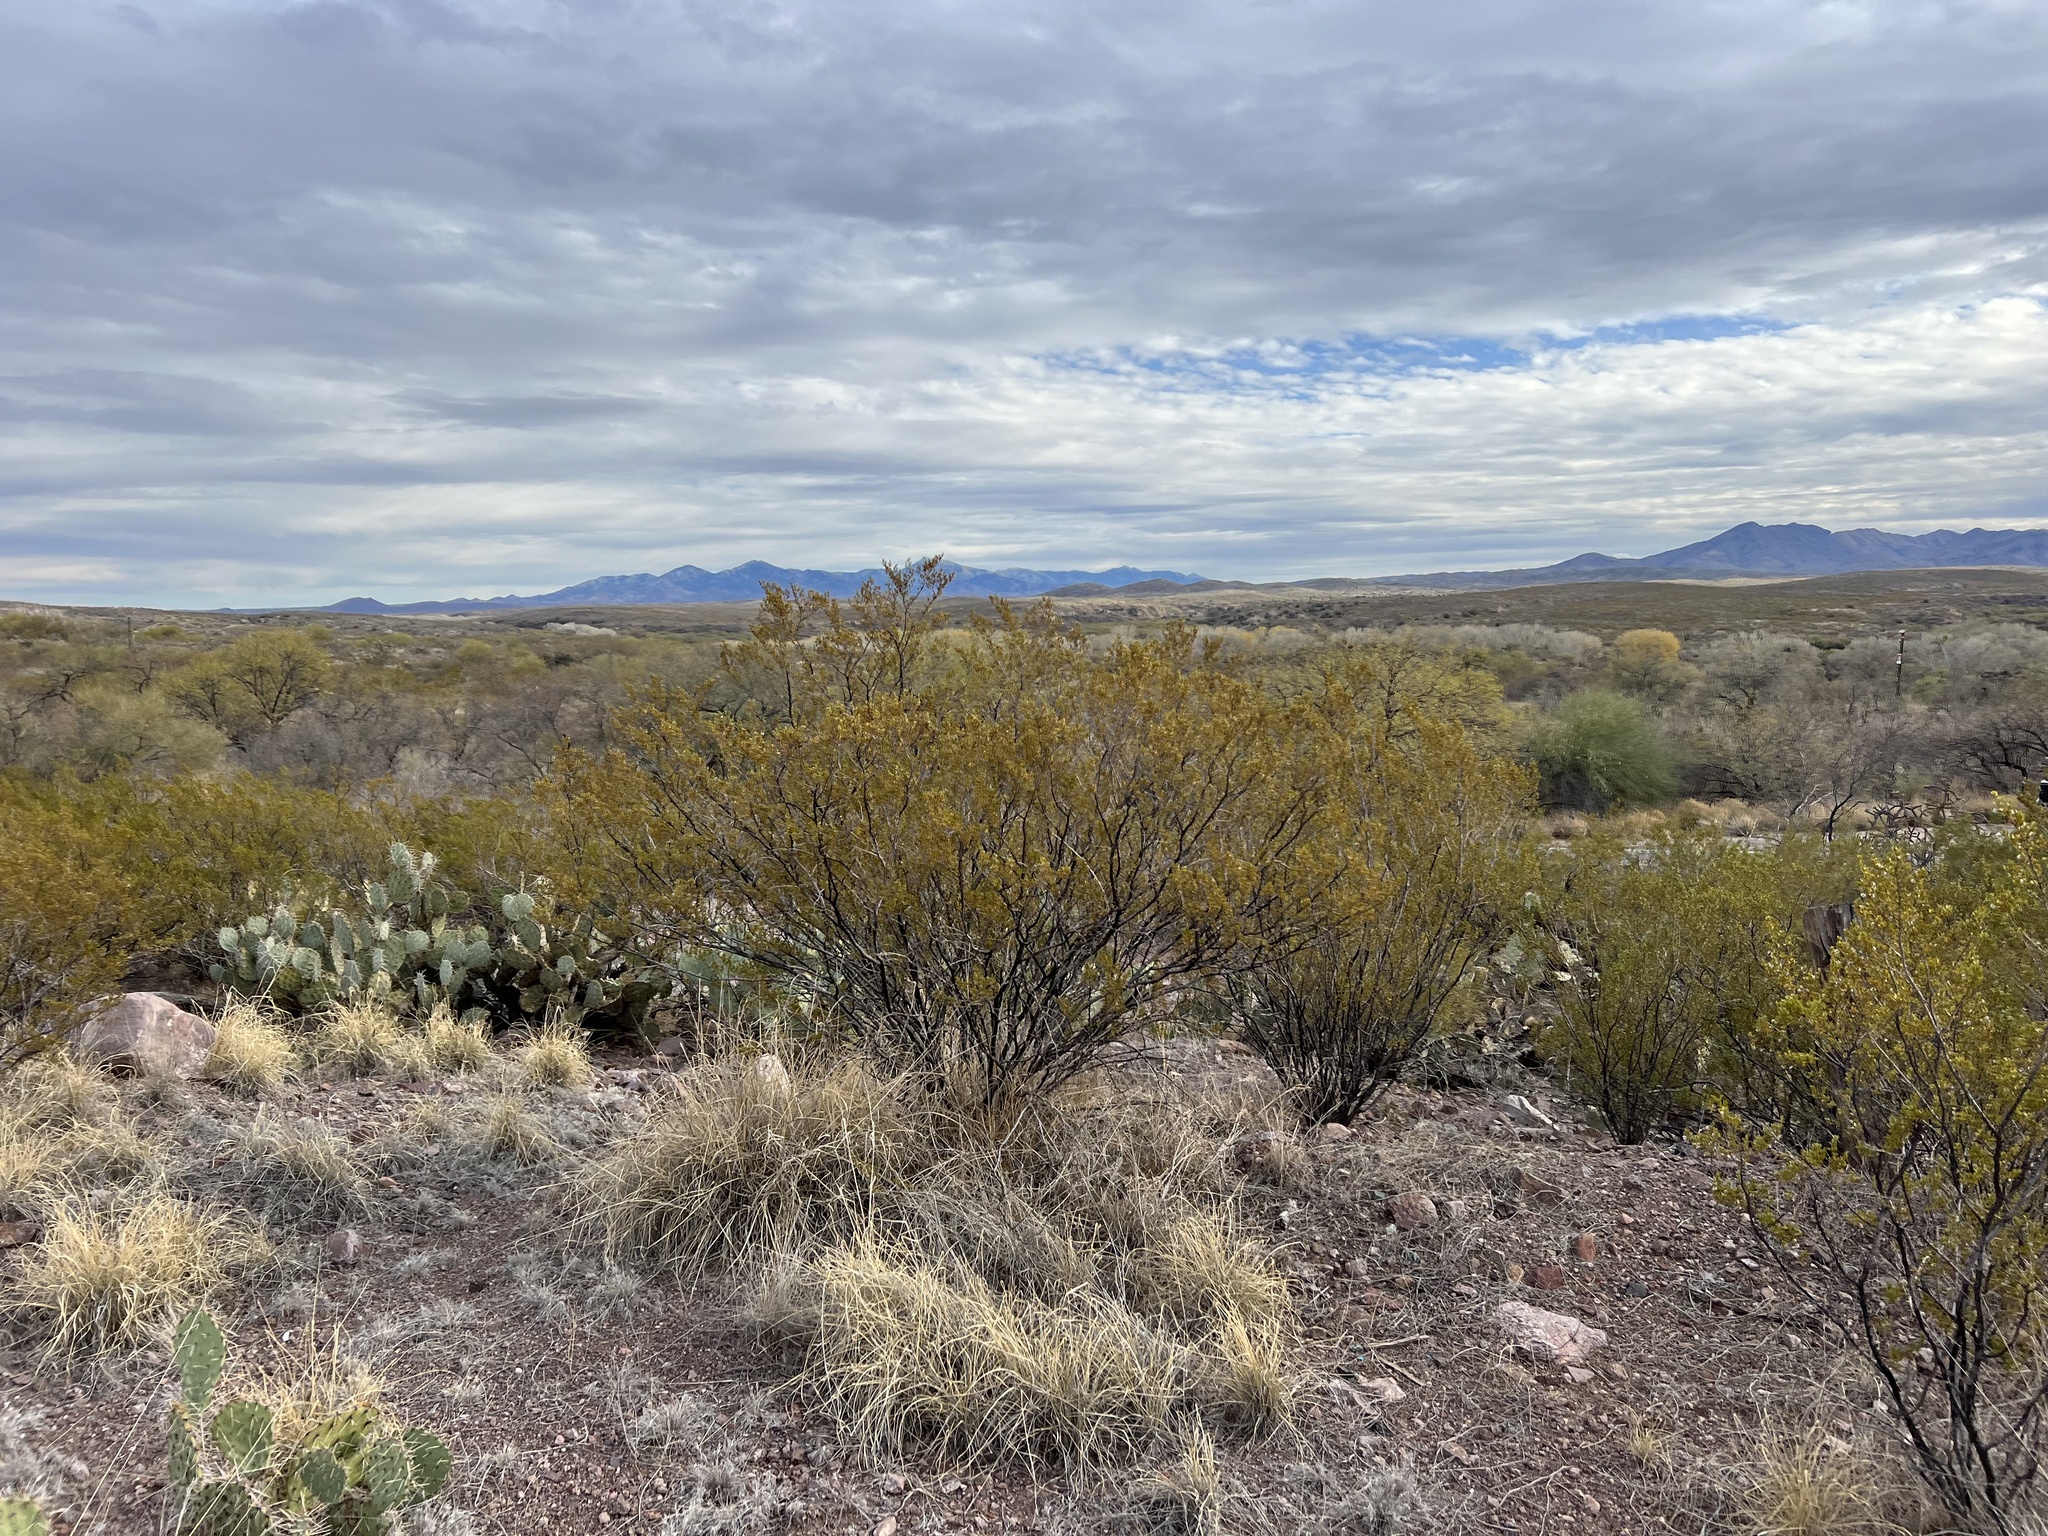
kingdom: Plantae
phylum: Tracheophyta
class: Magnoliopsida
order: Zygophyllales
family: Zygophyllaceae
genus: Larrea
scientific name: Larrea tridentata
